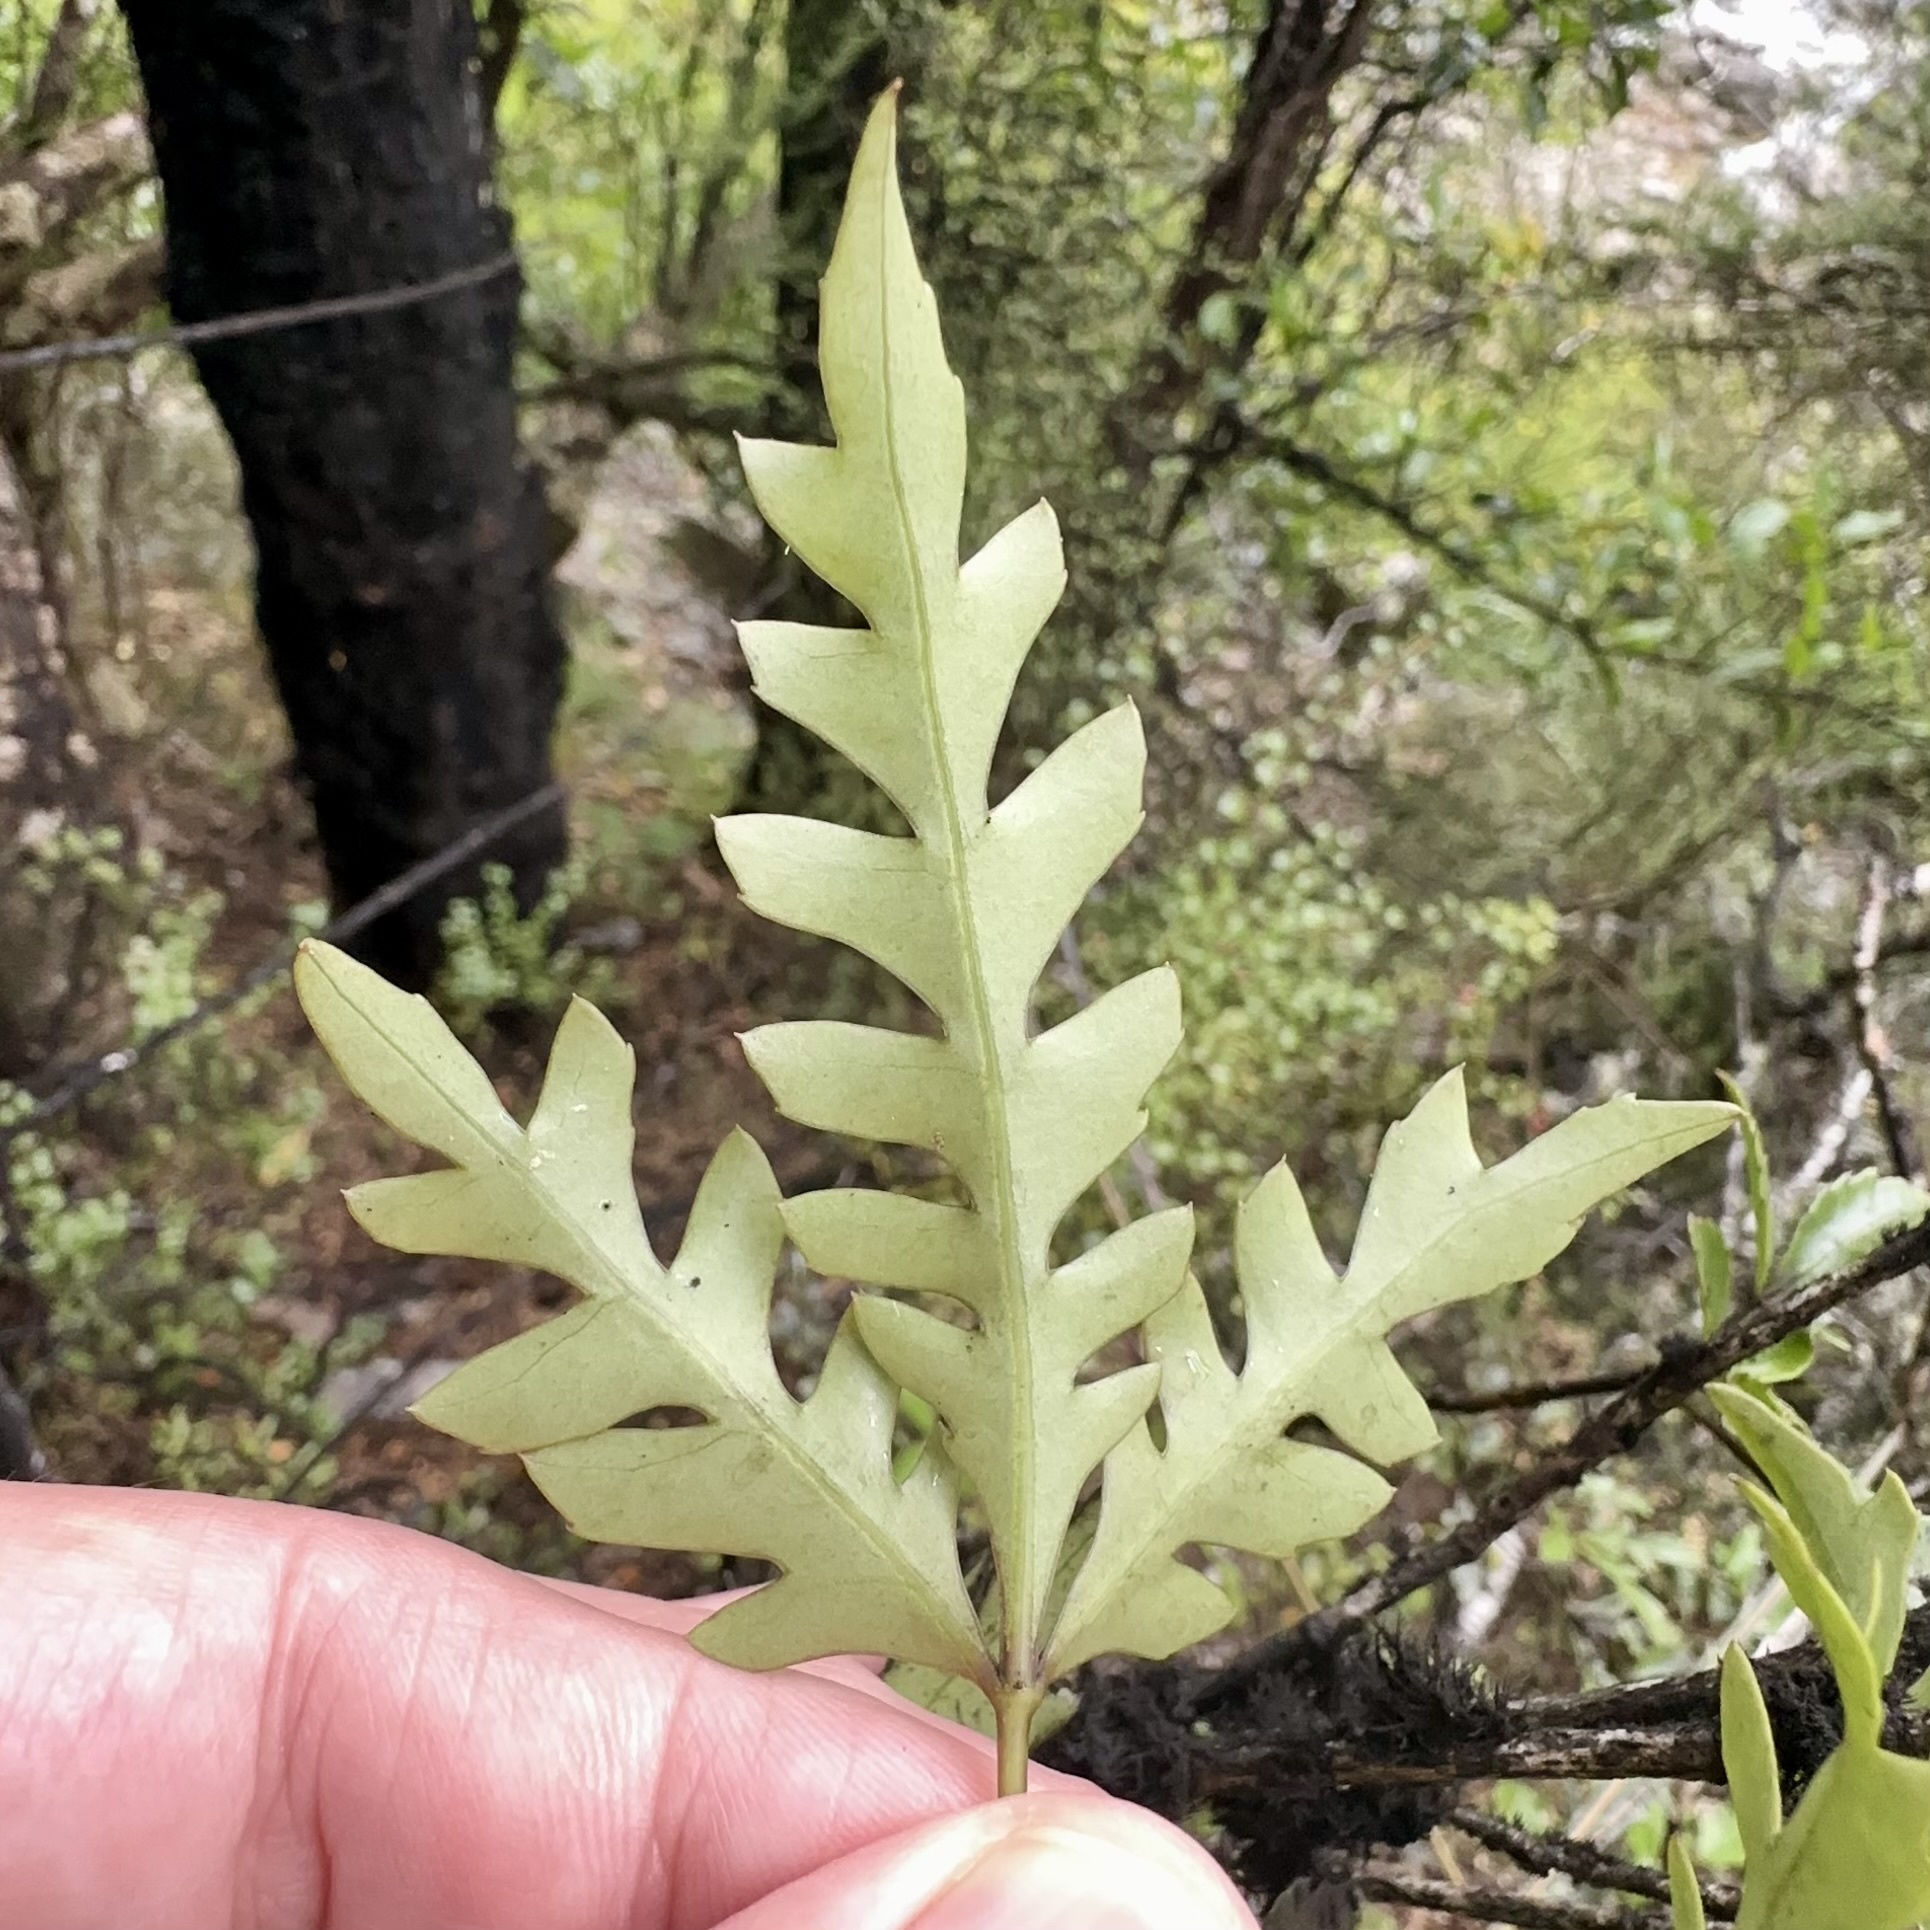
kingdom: Plantae
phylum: Tracheophyta
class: Magnoliopsida
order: Apiales
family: Araliaceae
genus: Raukaua
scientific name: Raukaua simplex
